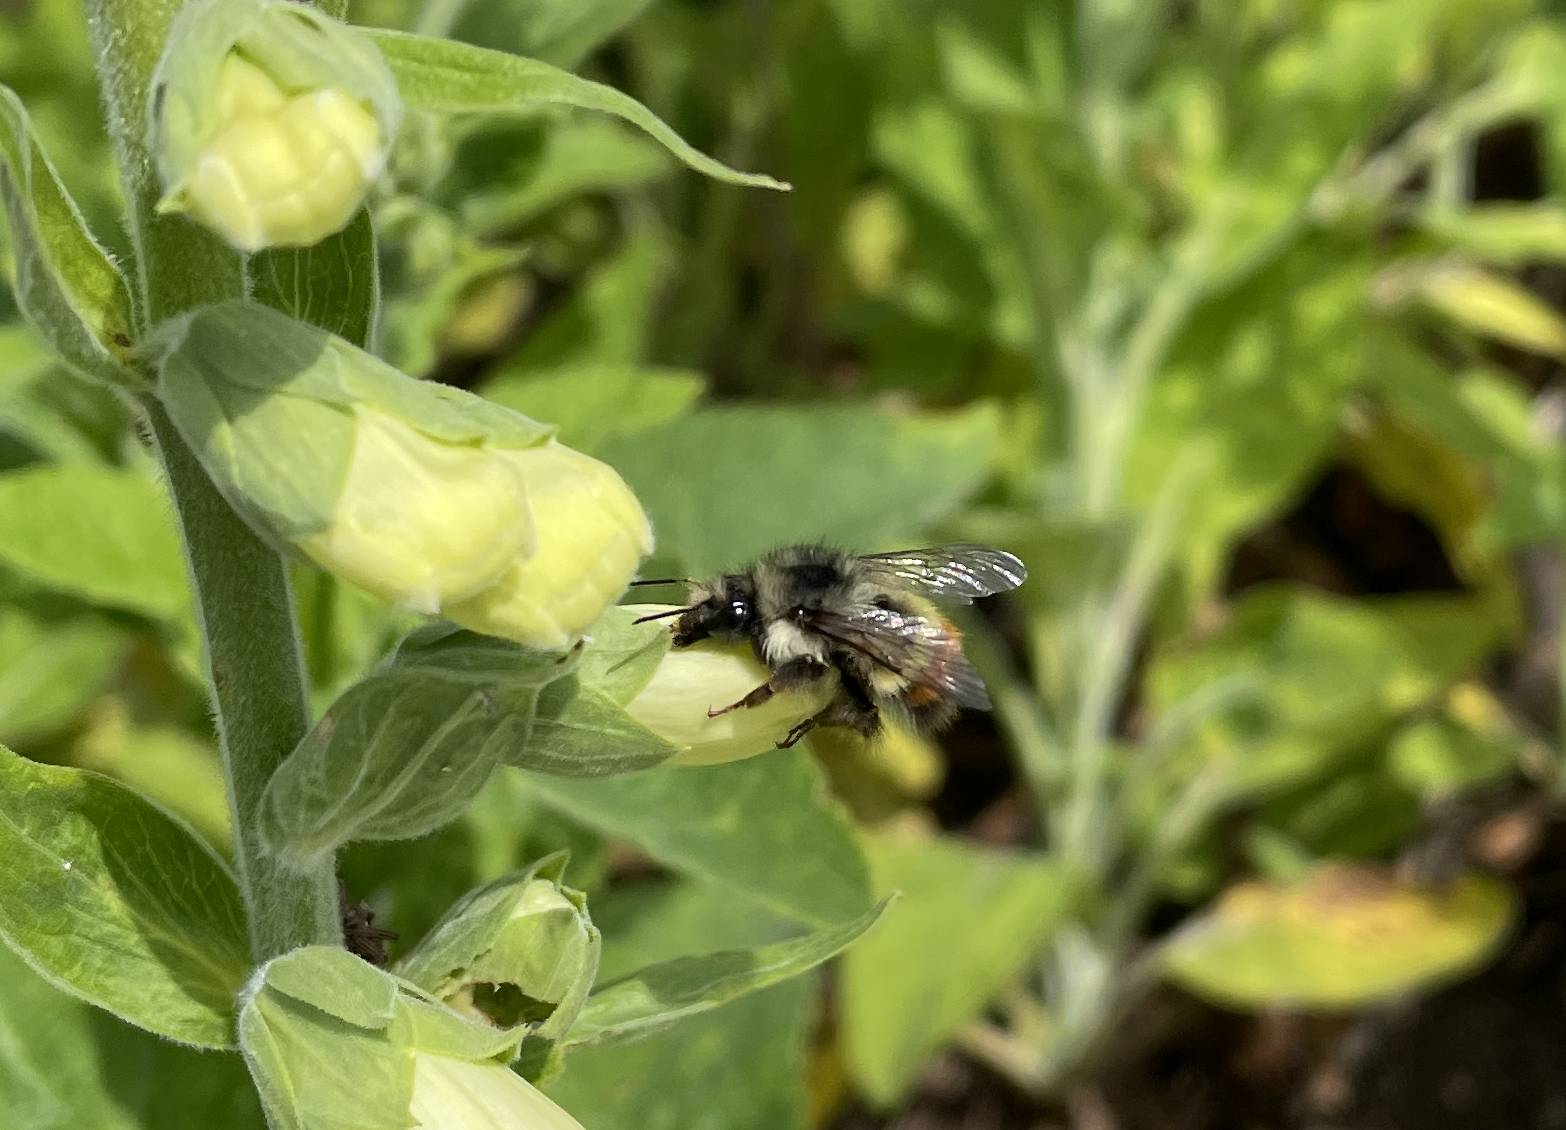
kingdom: Animalia
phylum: Arthropoda
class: Insecta
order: Hymenoptera
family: Apidae
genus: Bombus
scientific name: Bombus flavifrons
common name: Yellow head bumble bee
